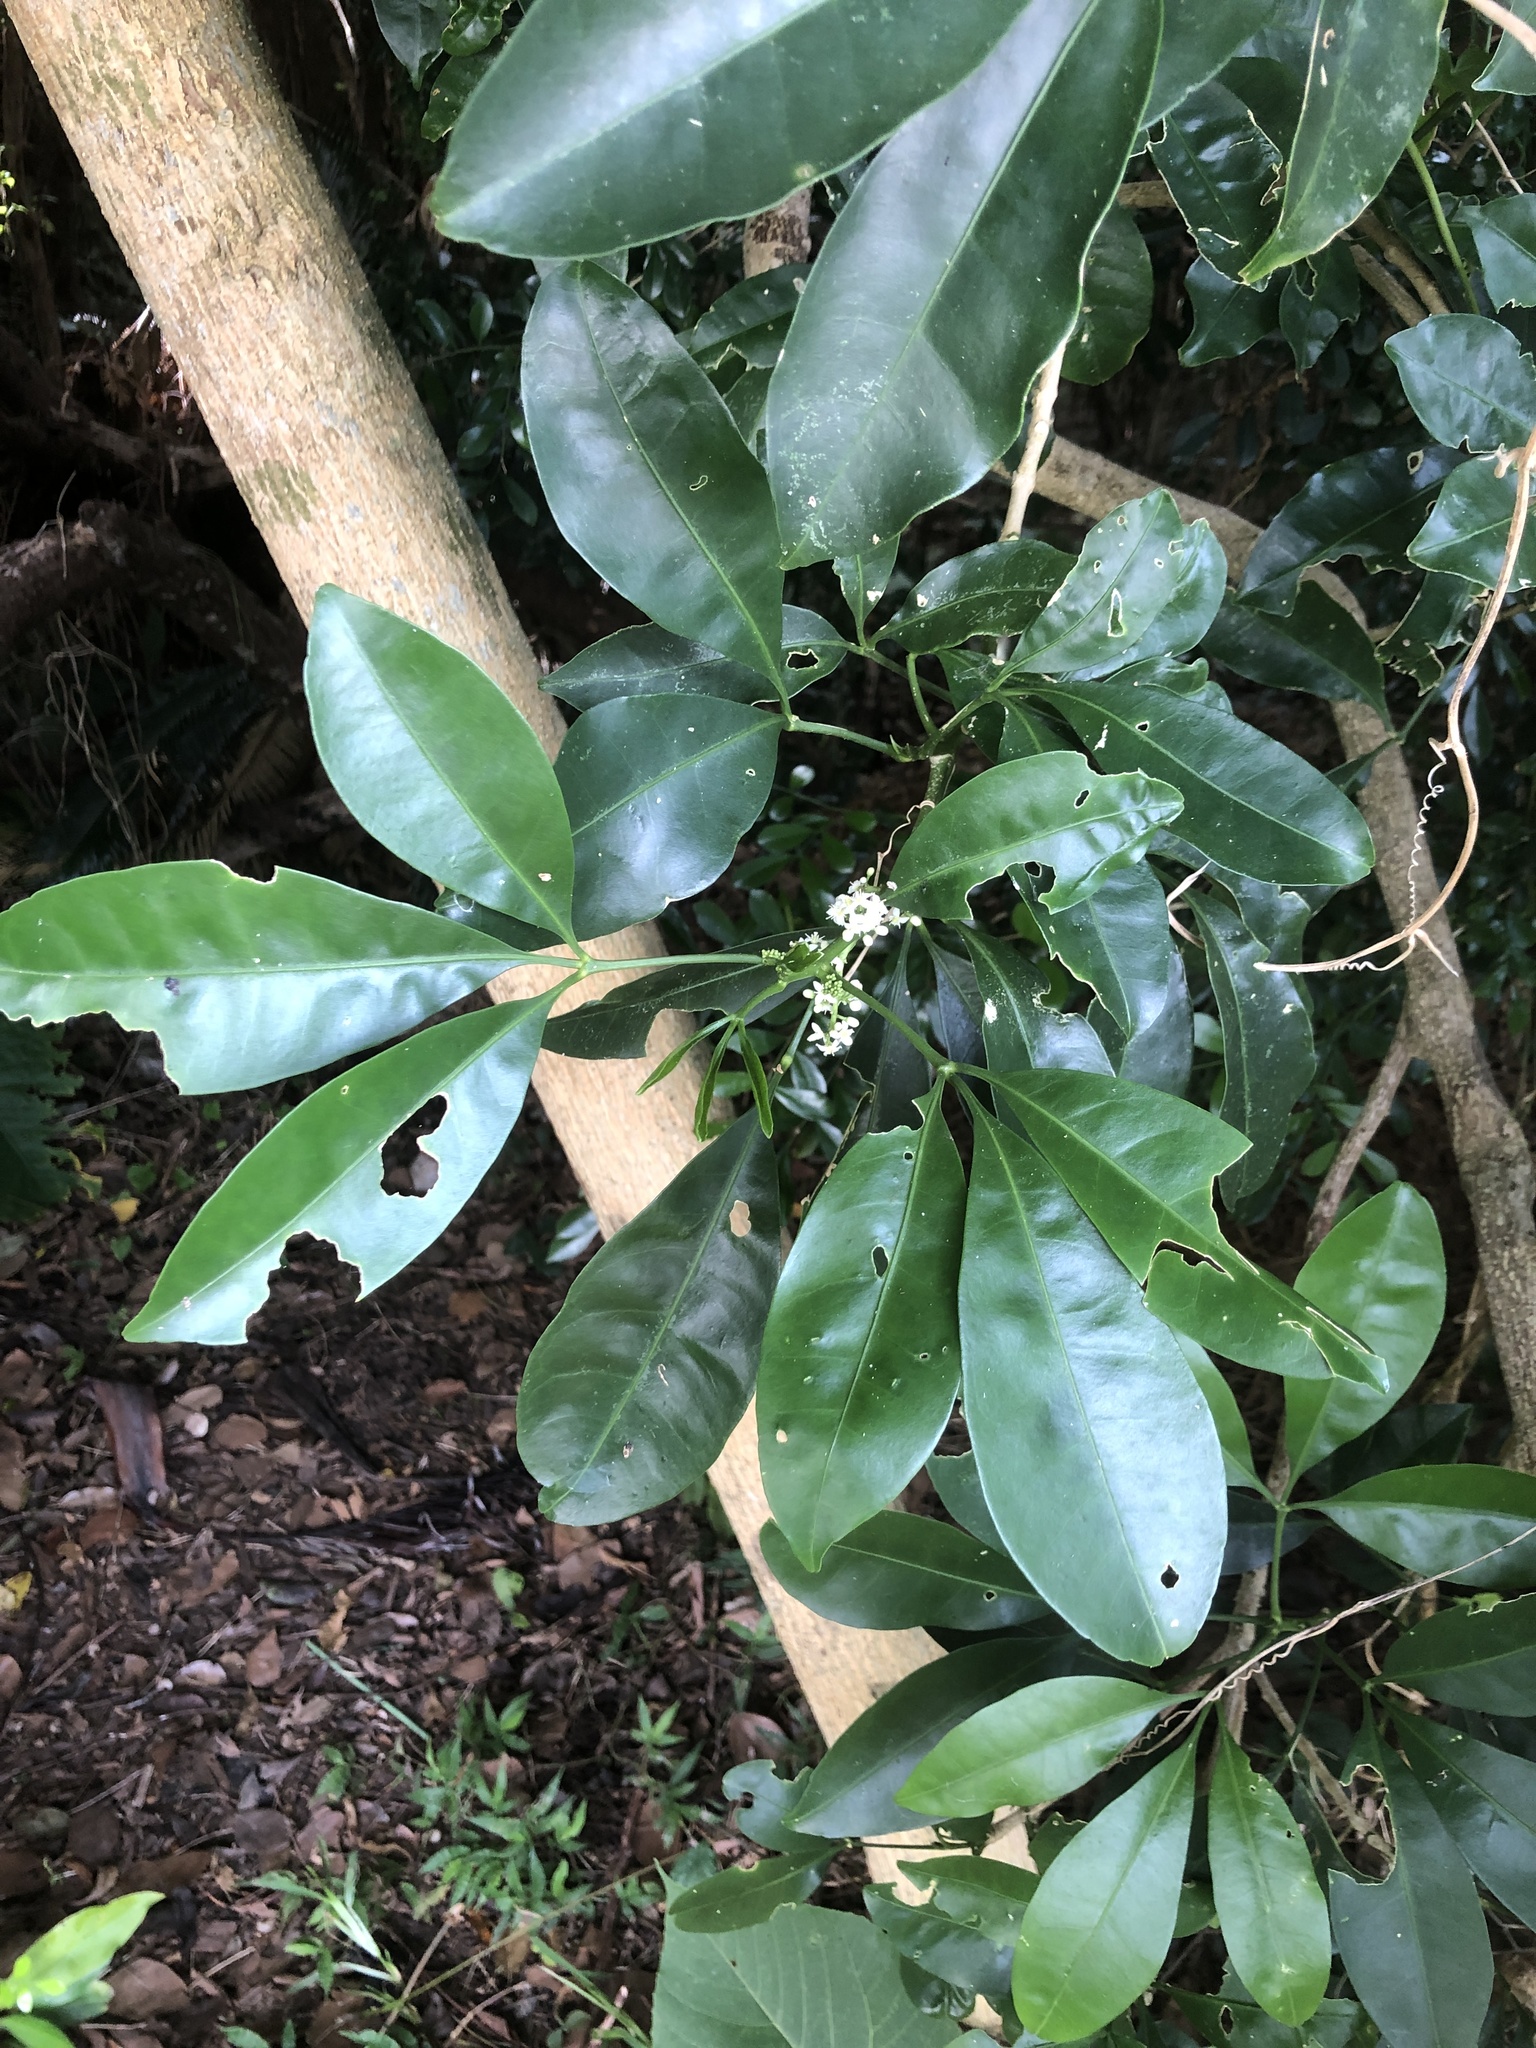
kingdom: Plantae
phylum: Tracheophyta
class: Magnoliopsida
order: Sapindales
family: Rutaceae
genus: Melicope
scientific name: Melicope triphylla
